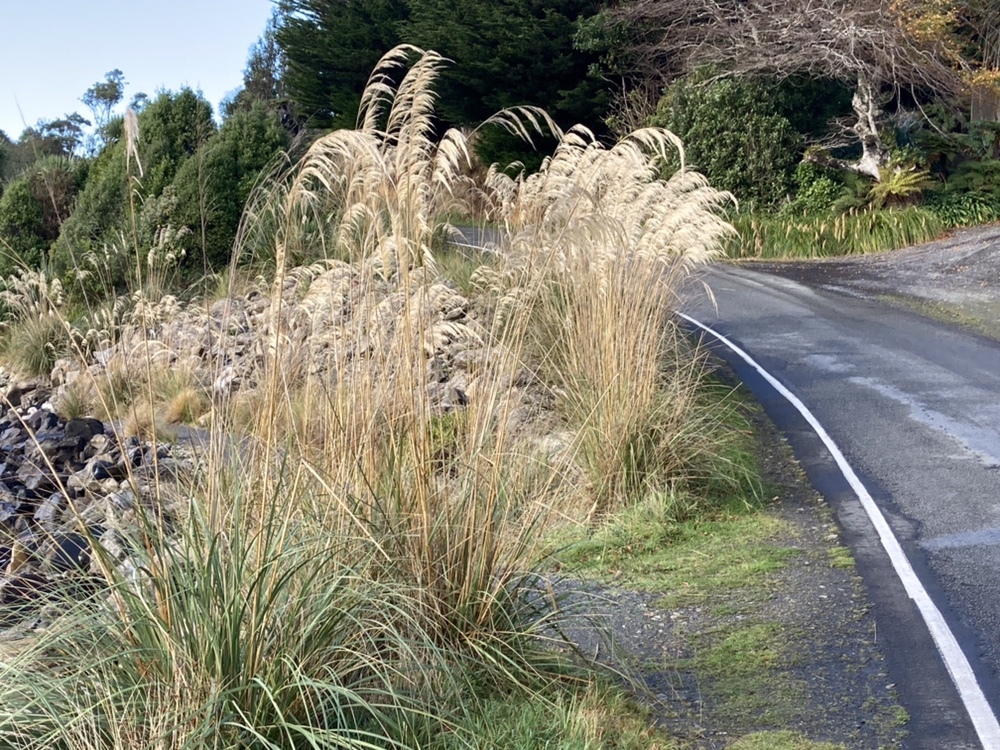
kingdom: Plantae
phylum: Tracheophyta
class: Liliopsida
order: Poales
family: Poaceae
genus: Austroderia
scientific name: Austroderia richardii
